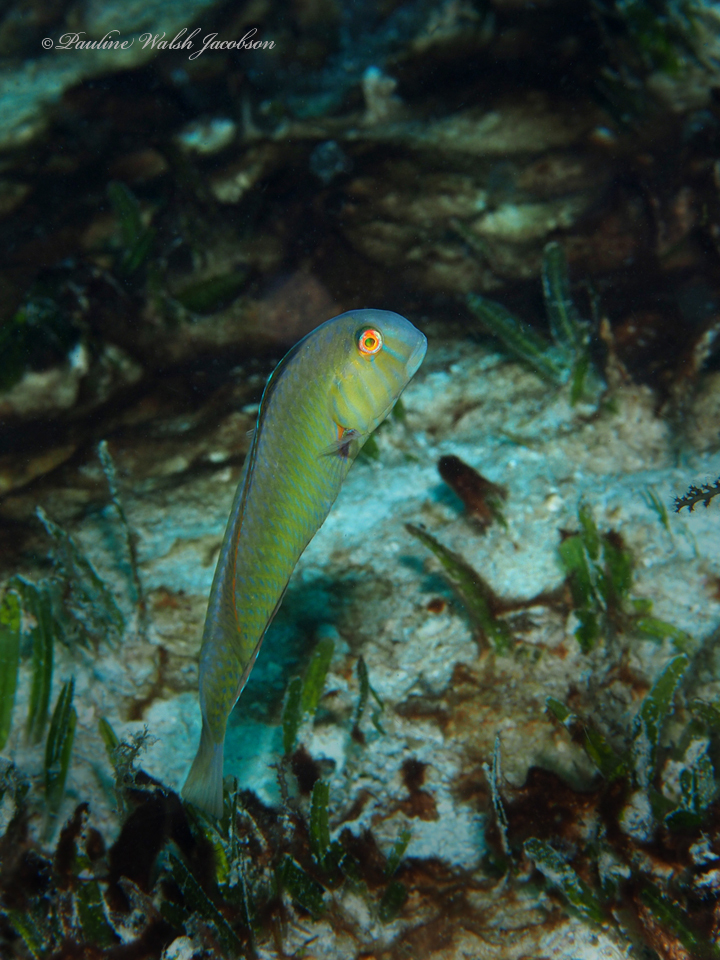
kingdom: Animalia
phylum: Chordata
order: Perciformes
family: Labridae
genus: Xyrichtys
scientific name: Xyrichtys splendens
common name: Green razorfish
